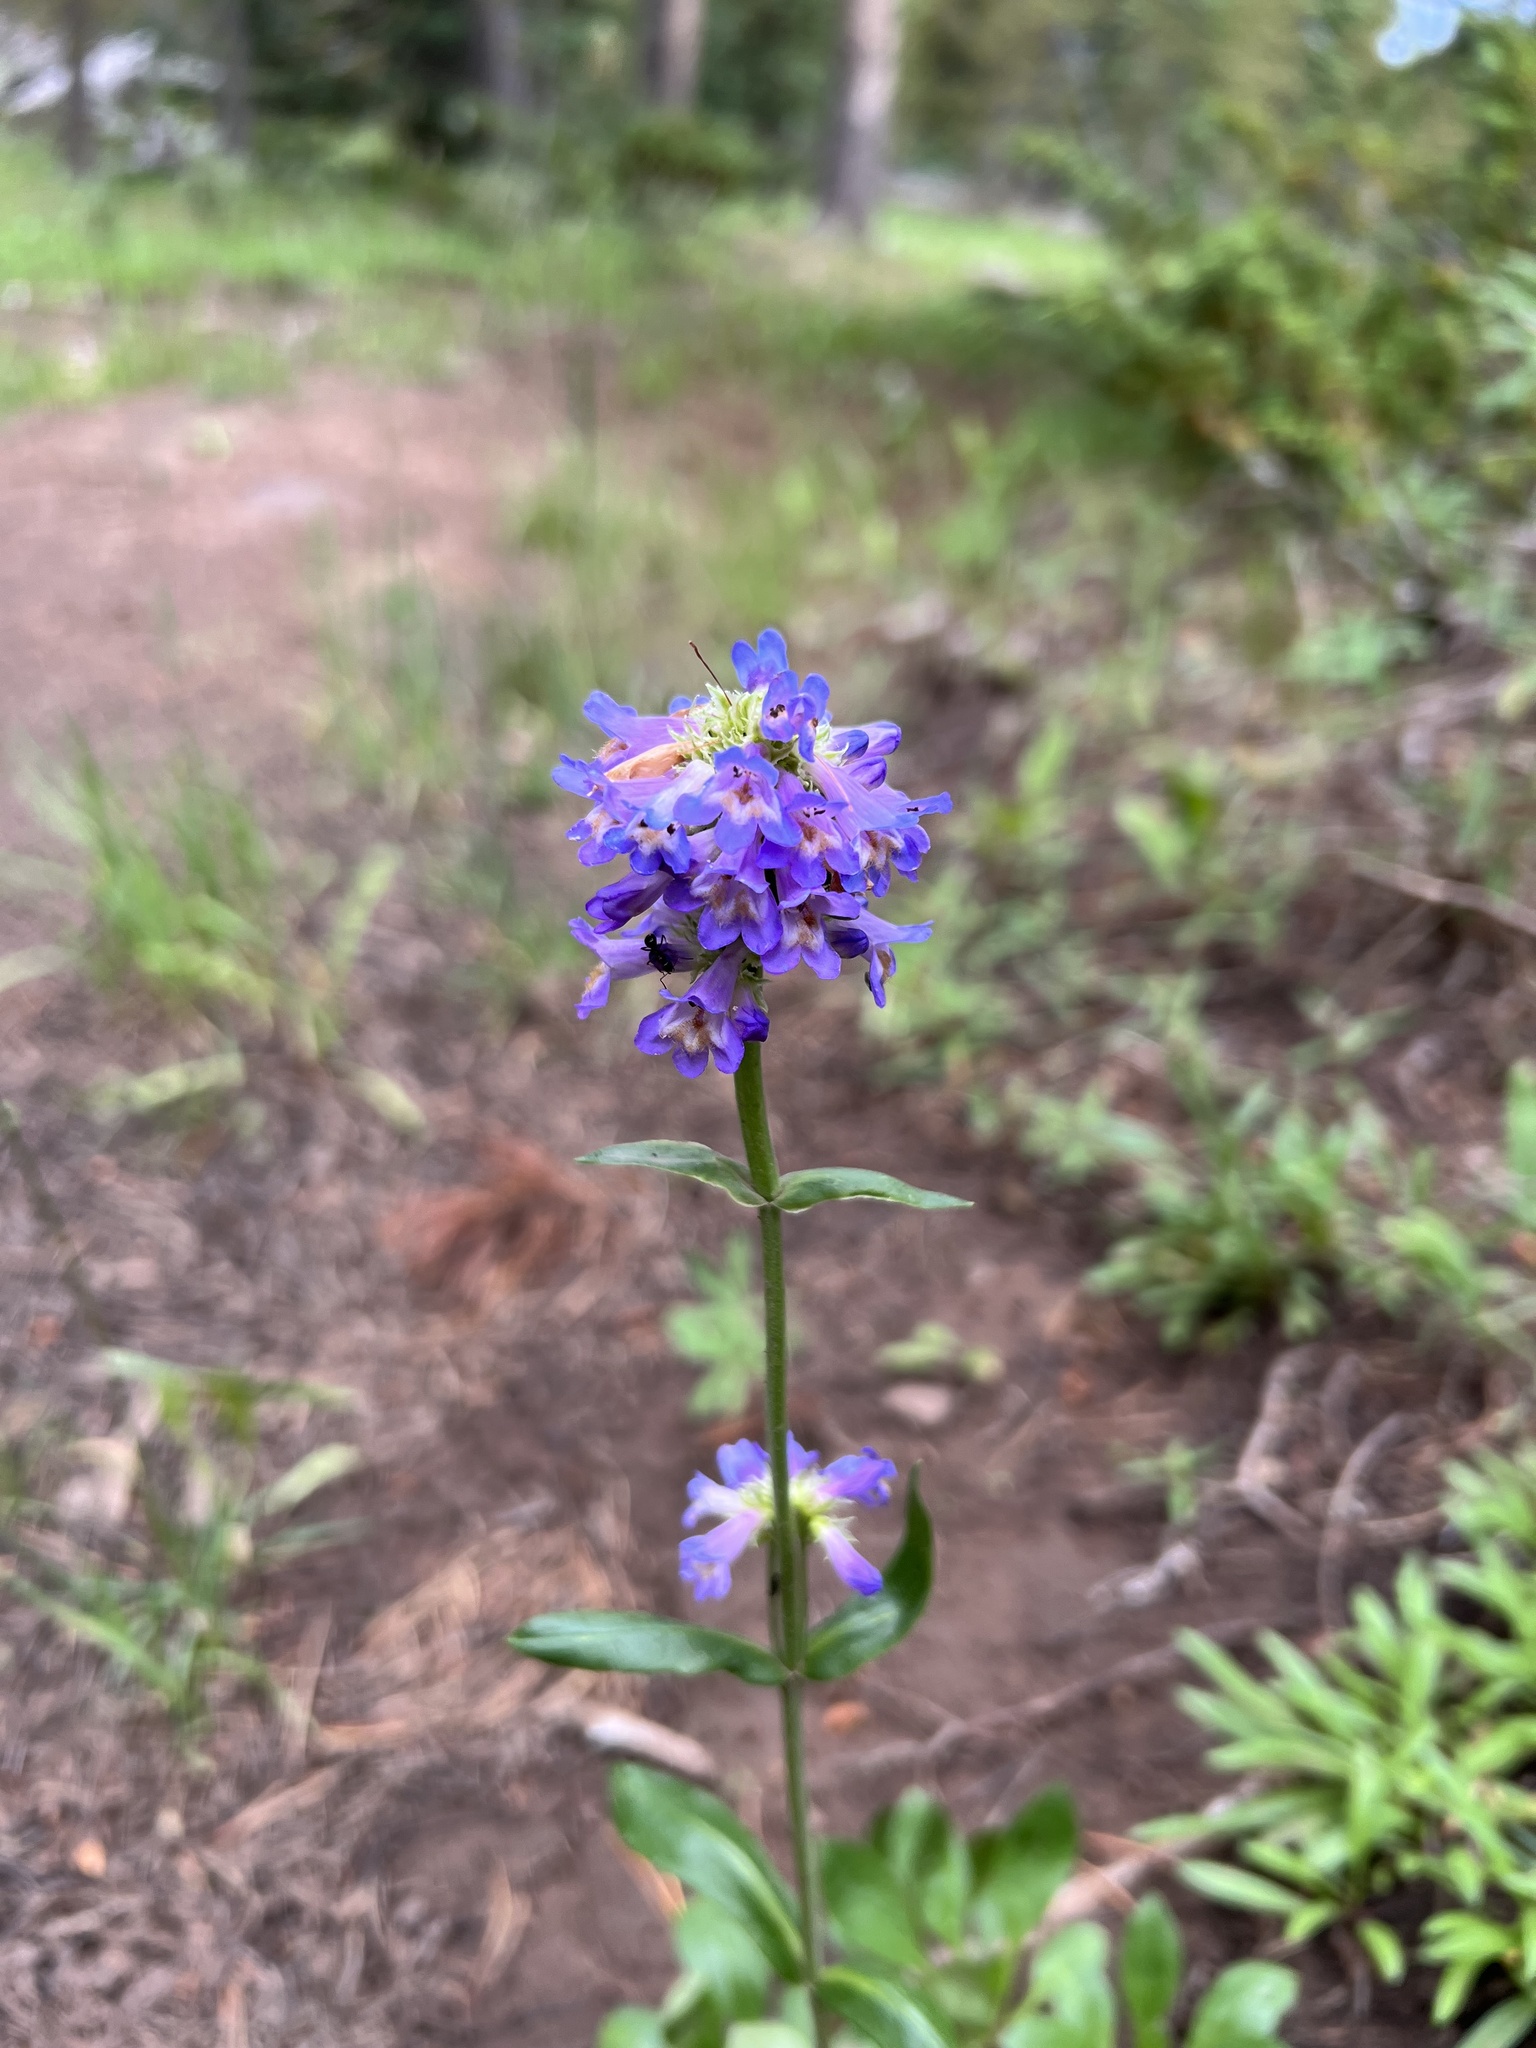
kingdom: Plantae
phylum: Tracheophyta
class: Magnoliopsida
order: Lamiales
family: Plantaginaceae
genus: Penstemon
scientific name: Penstemon procerus
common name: Small-flower penstemon
